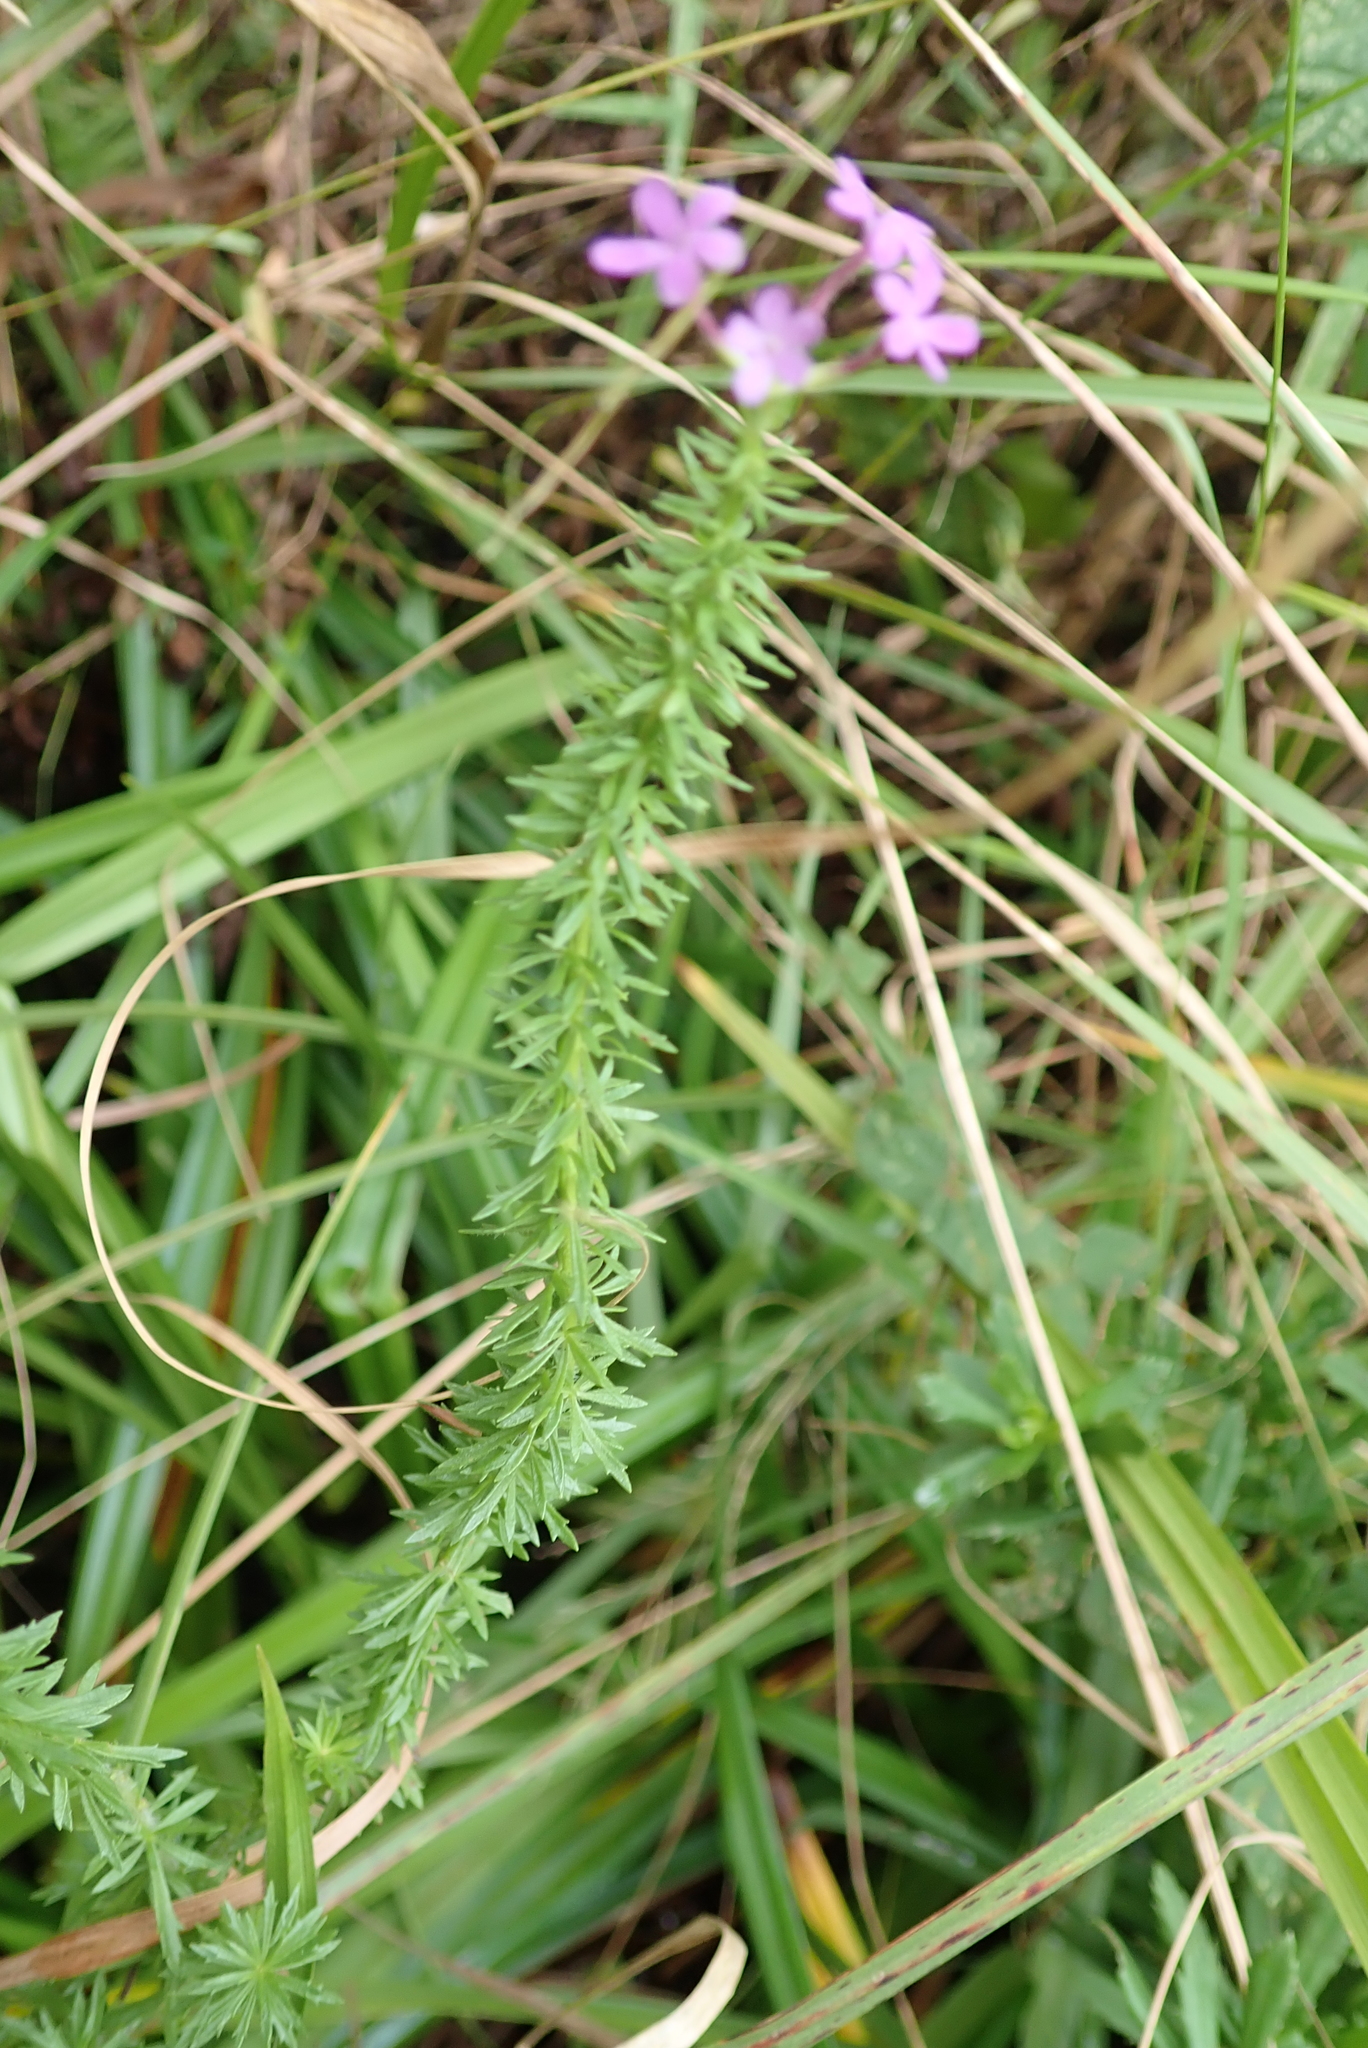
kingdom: Plantae
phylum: Tracheophyta
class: Magnoliopsida
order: Lamiales
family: Scrophulariaceae
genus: Selago
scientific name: Selago longiflora
